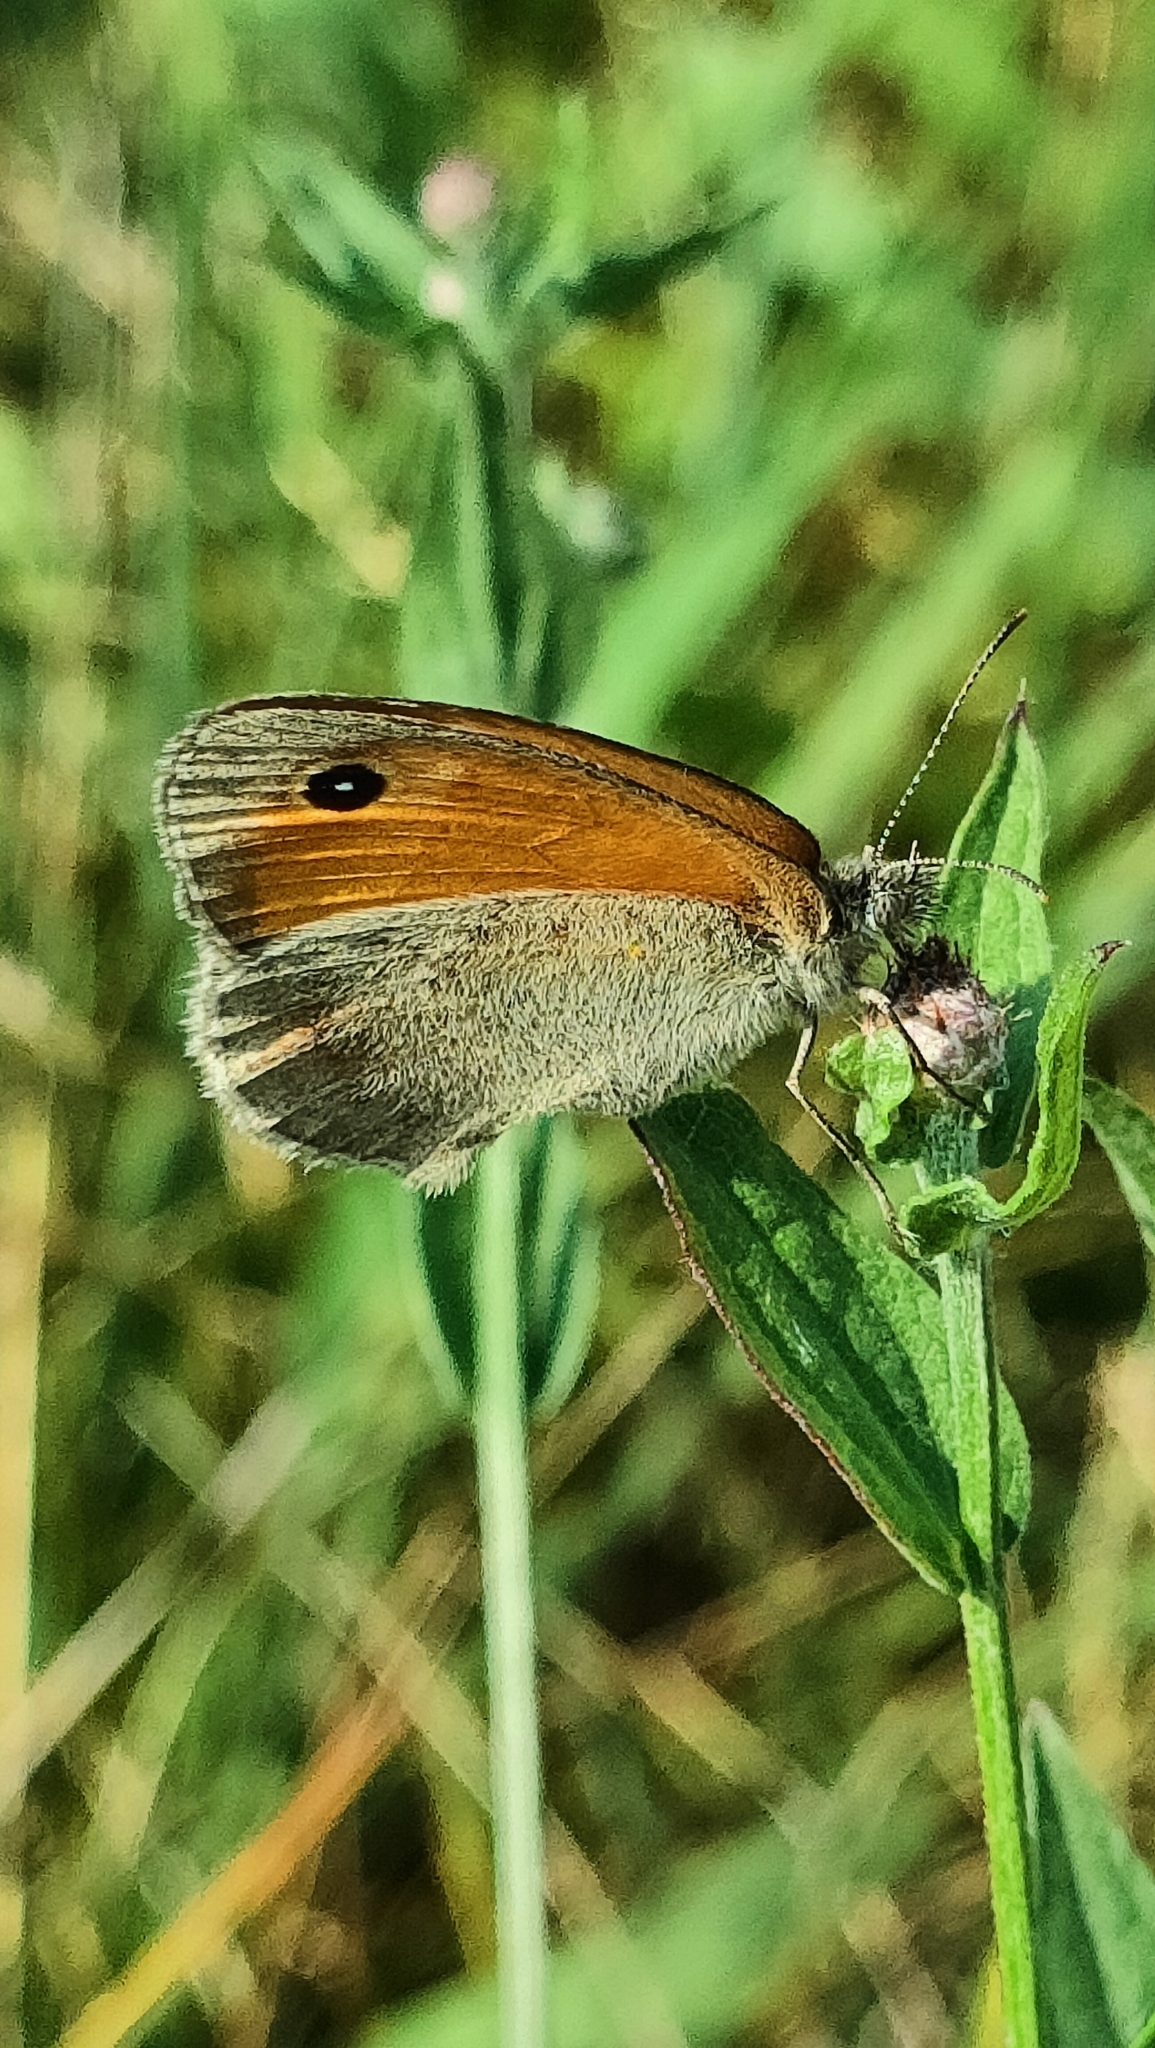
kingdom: Animalia
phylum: Arthropoda
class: Insecta
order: Lepidoptera
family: Nymphalidae
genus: Coenonympha
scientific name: Coenonympha pamphilus
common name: Small heath
